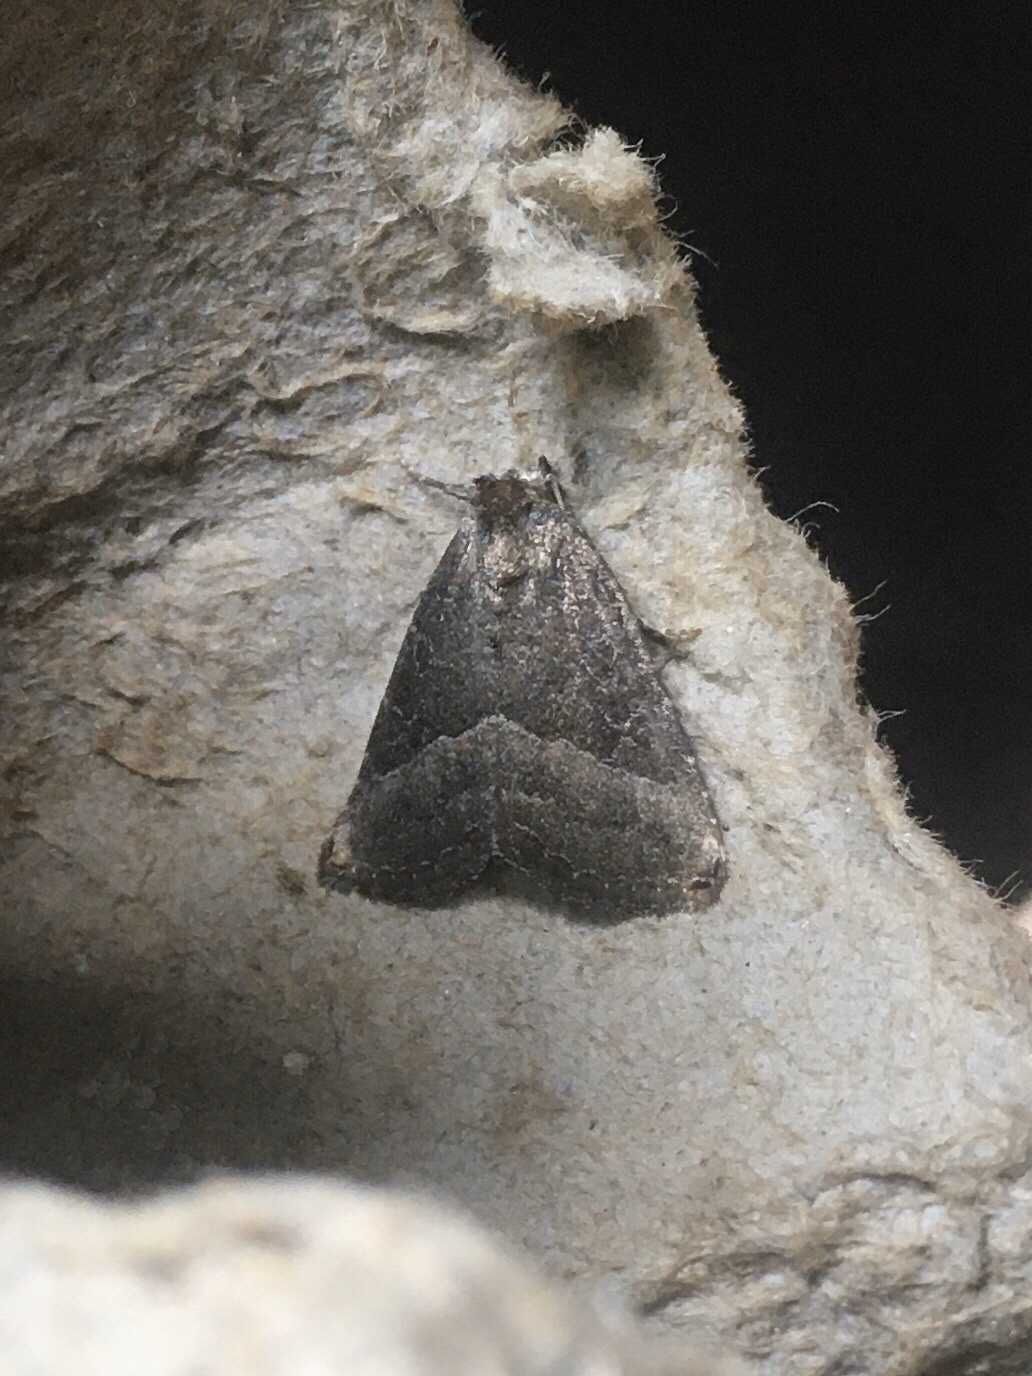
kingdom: Animalia
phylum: Arthropoda
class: Insecta
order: Lepidoptera
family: Noctuidae
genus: Ogdoconta
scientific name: Ogdoconta cinereola
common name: Common pinkband
